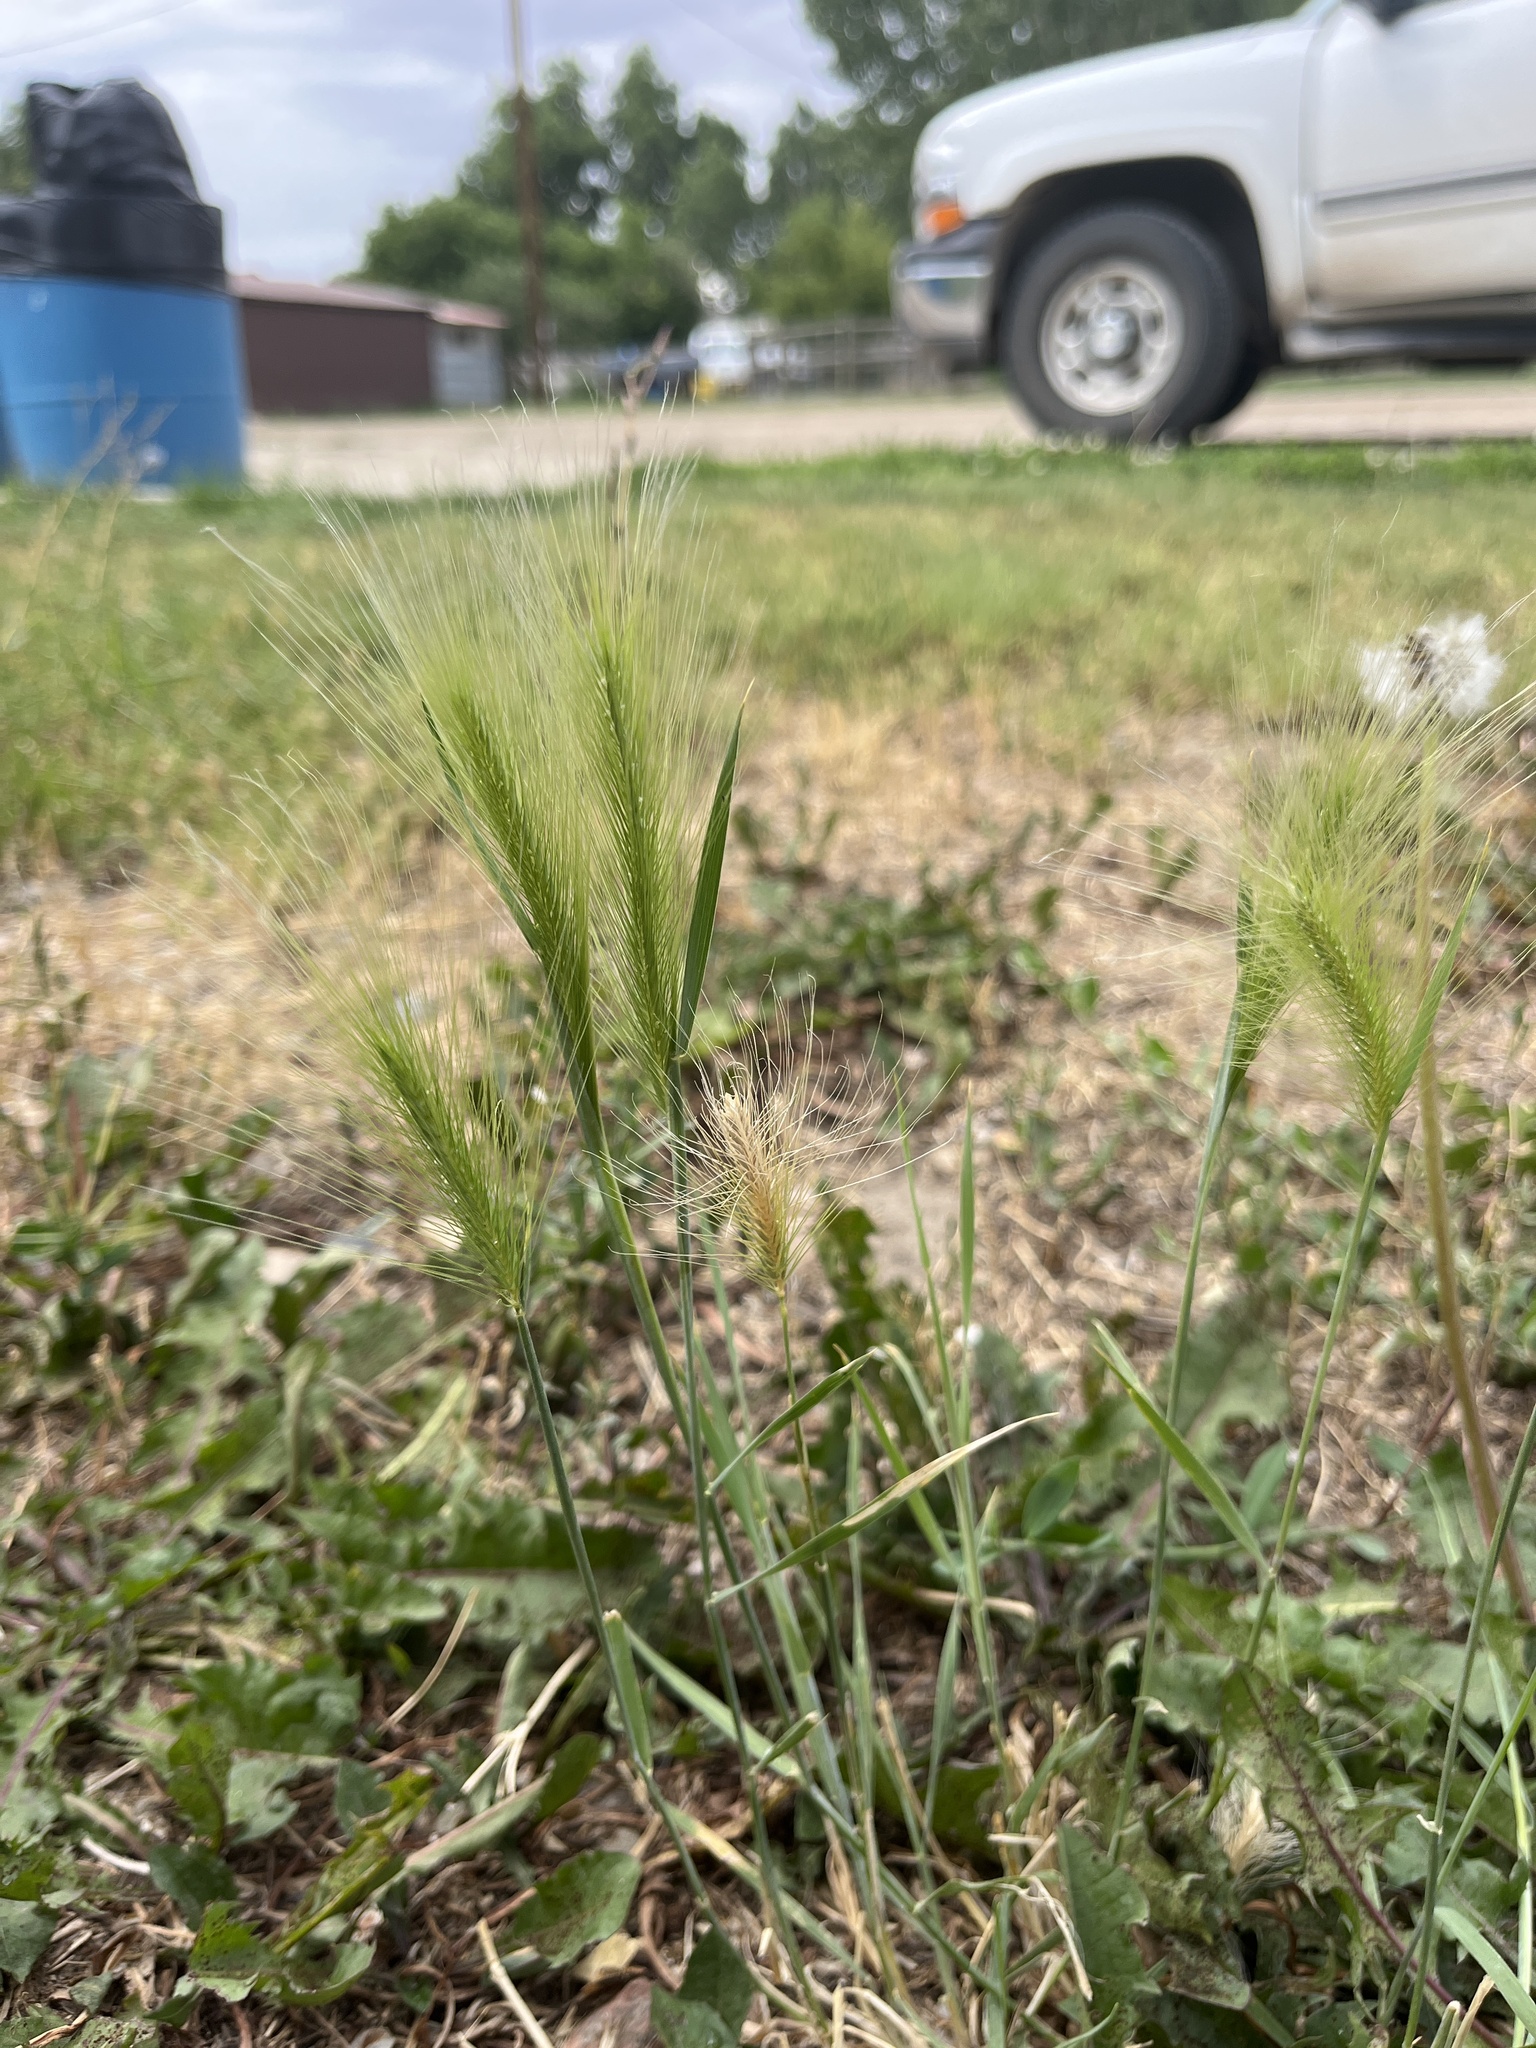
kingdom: Plantae
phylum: Tracheophyta
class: Liliopsida
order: Poales
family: Poaceae
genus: Hordeum
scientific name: Hordeum jubatum
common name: Foxtail barley
